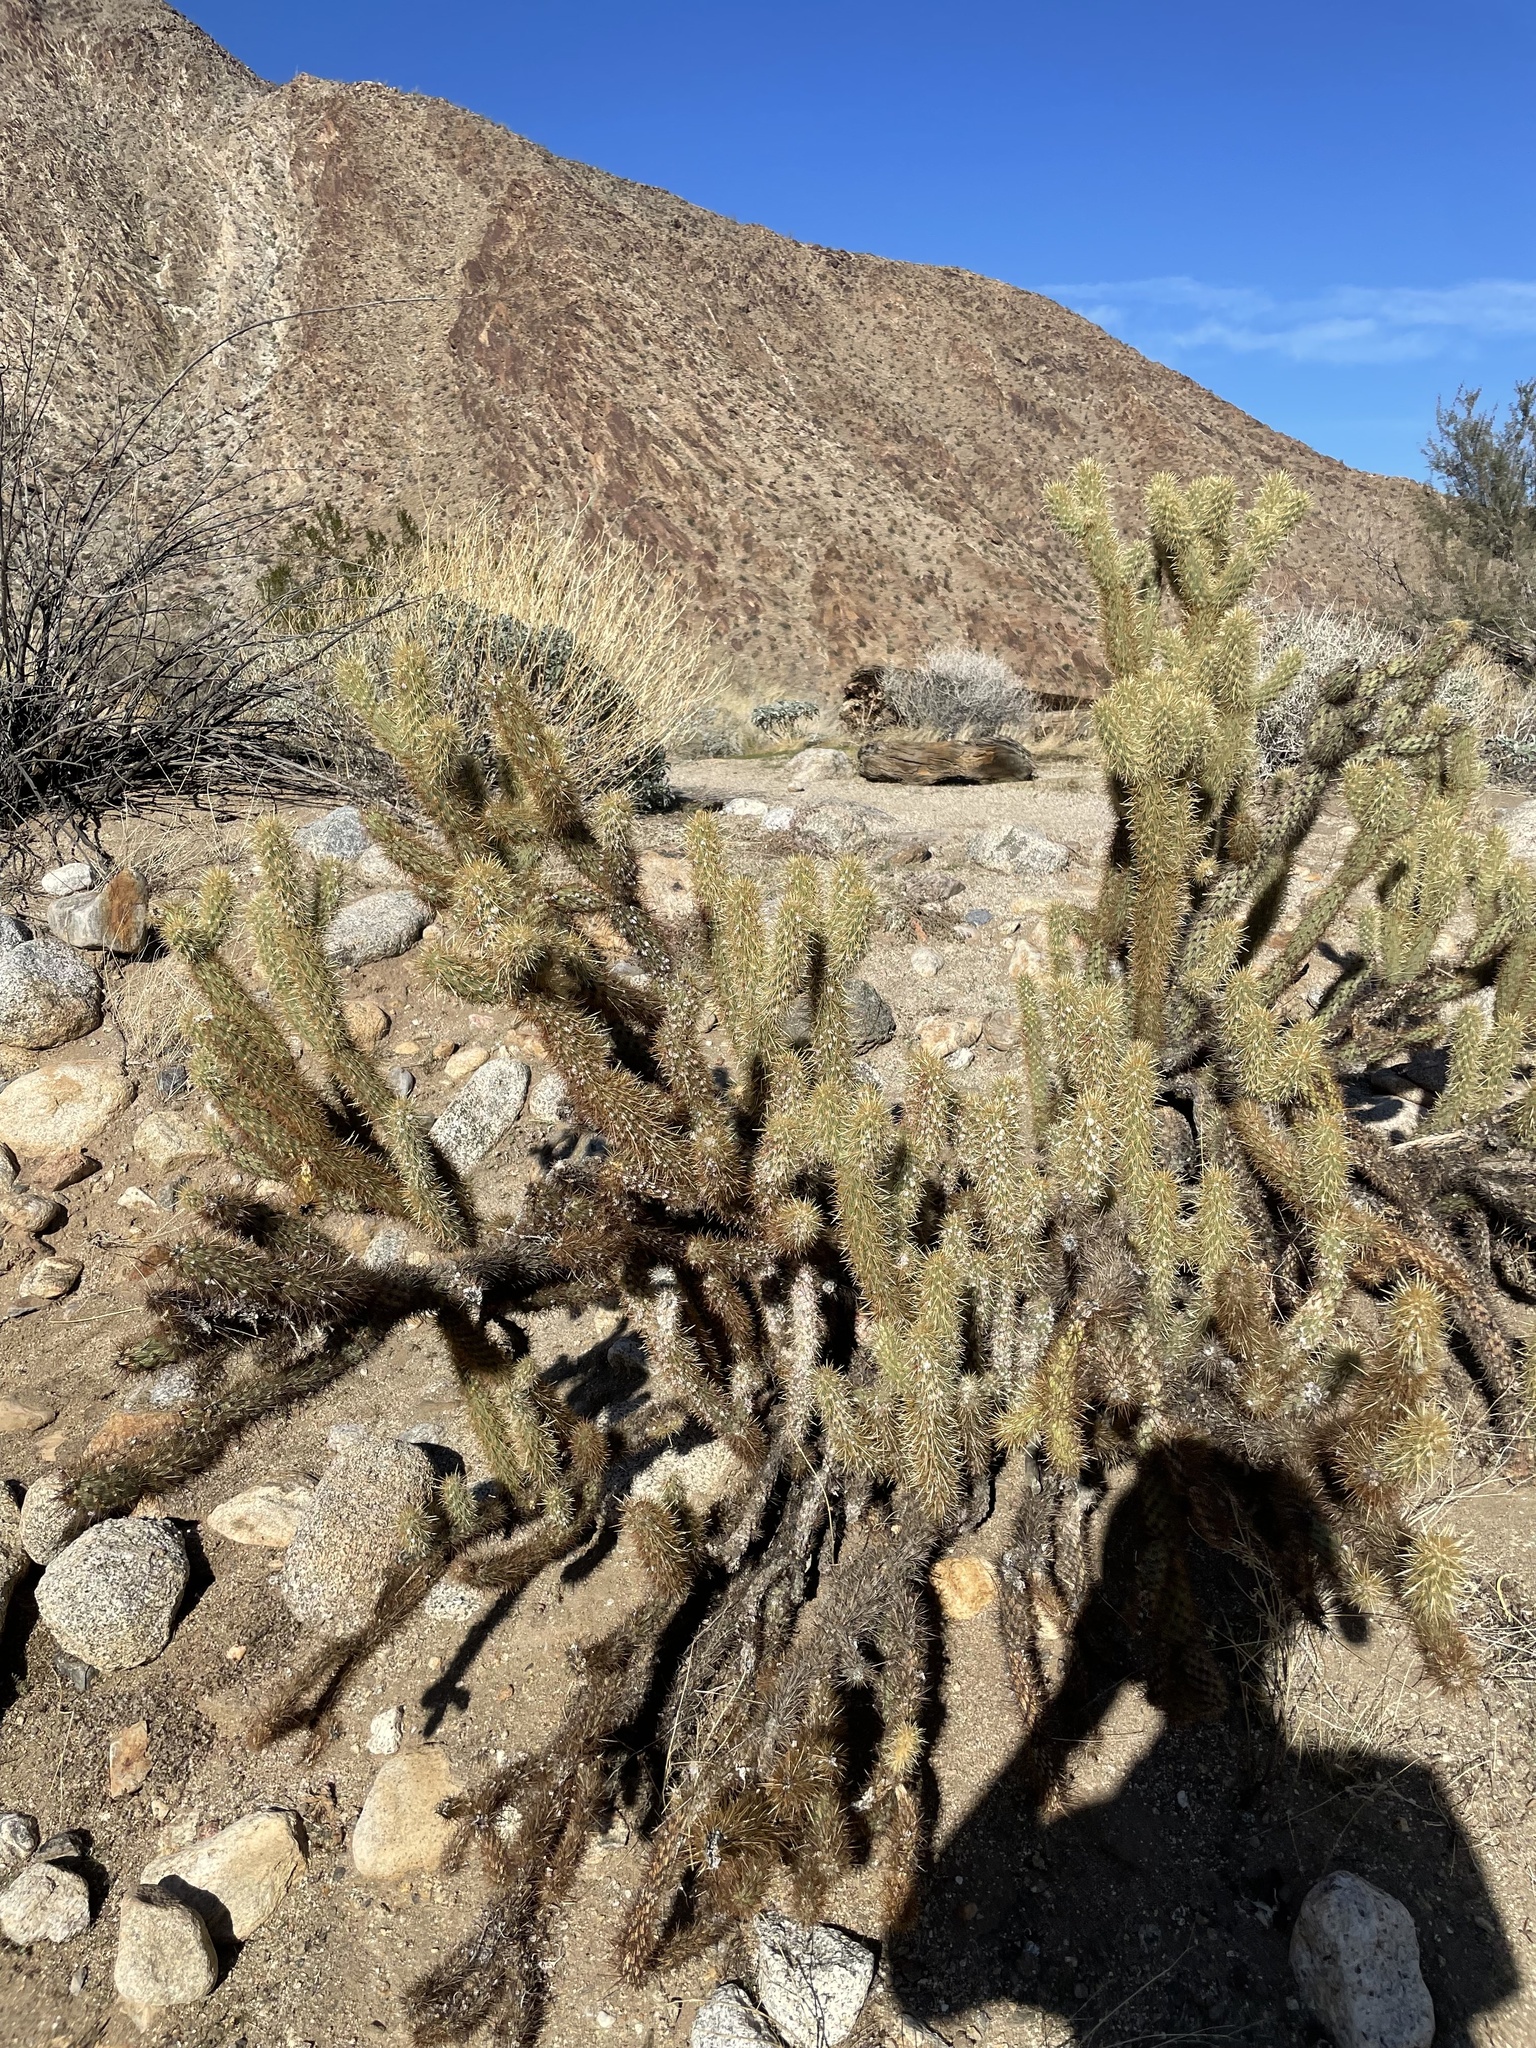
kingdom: Plantae
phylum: Tracheophyta
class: Magnoliopsida
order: Caryophyllales
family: Cactaceae
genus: Cylindropuntia
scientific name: Cylindropuntia ganderi
